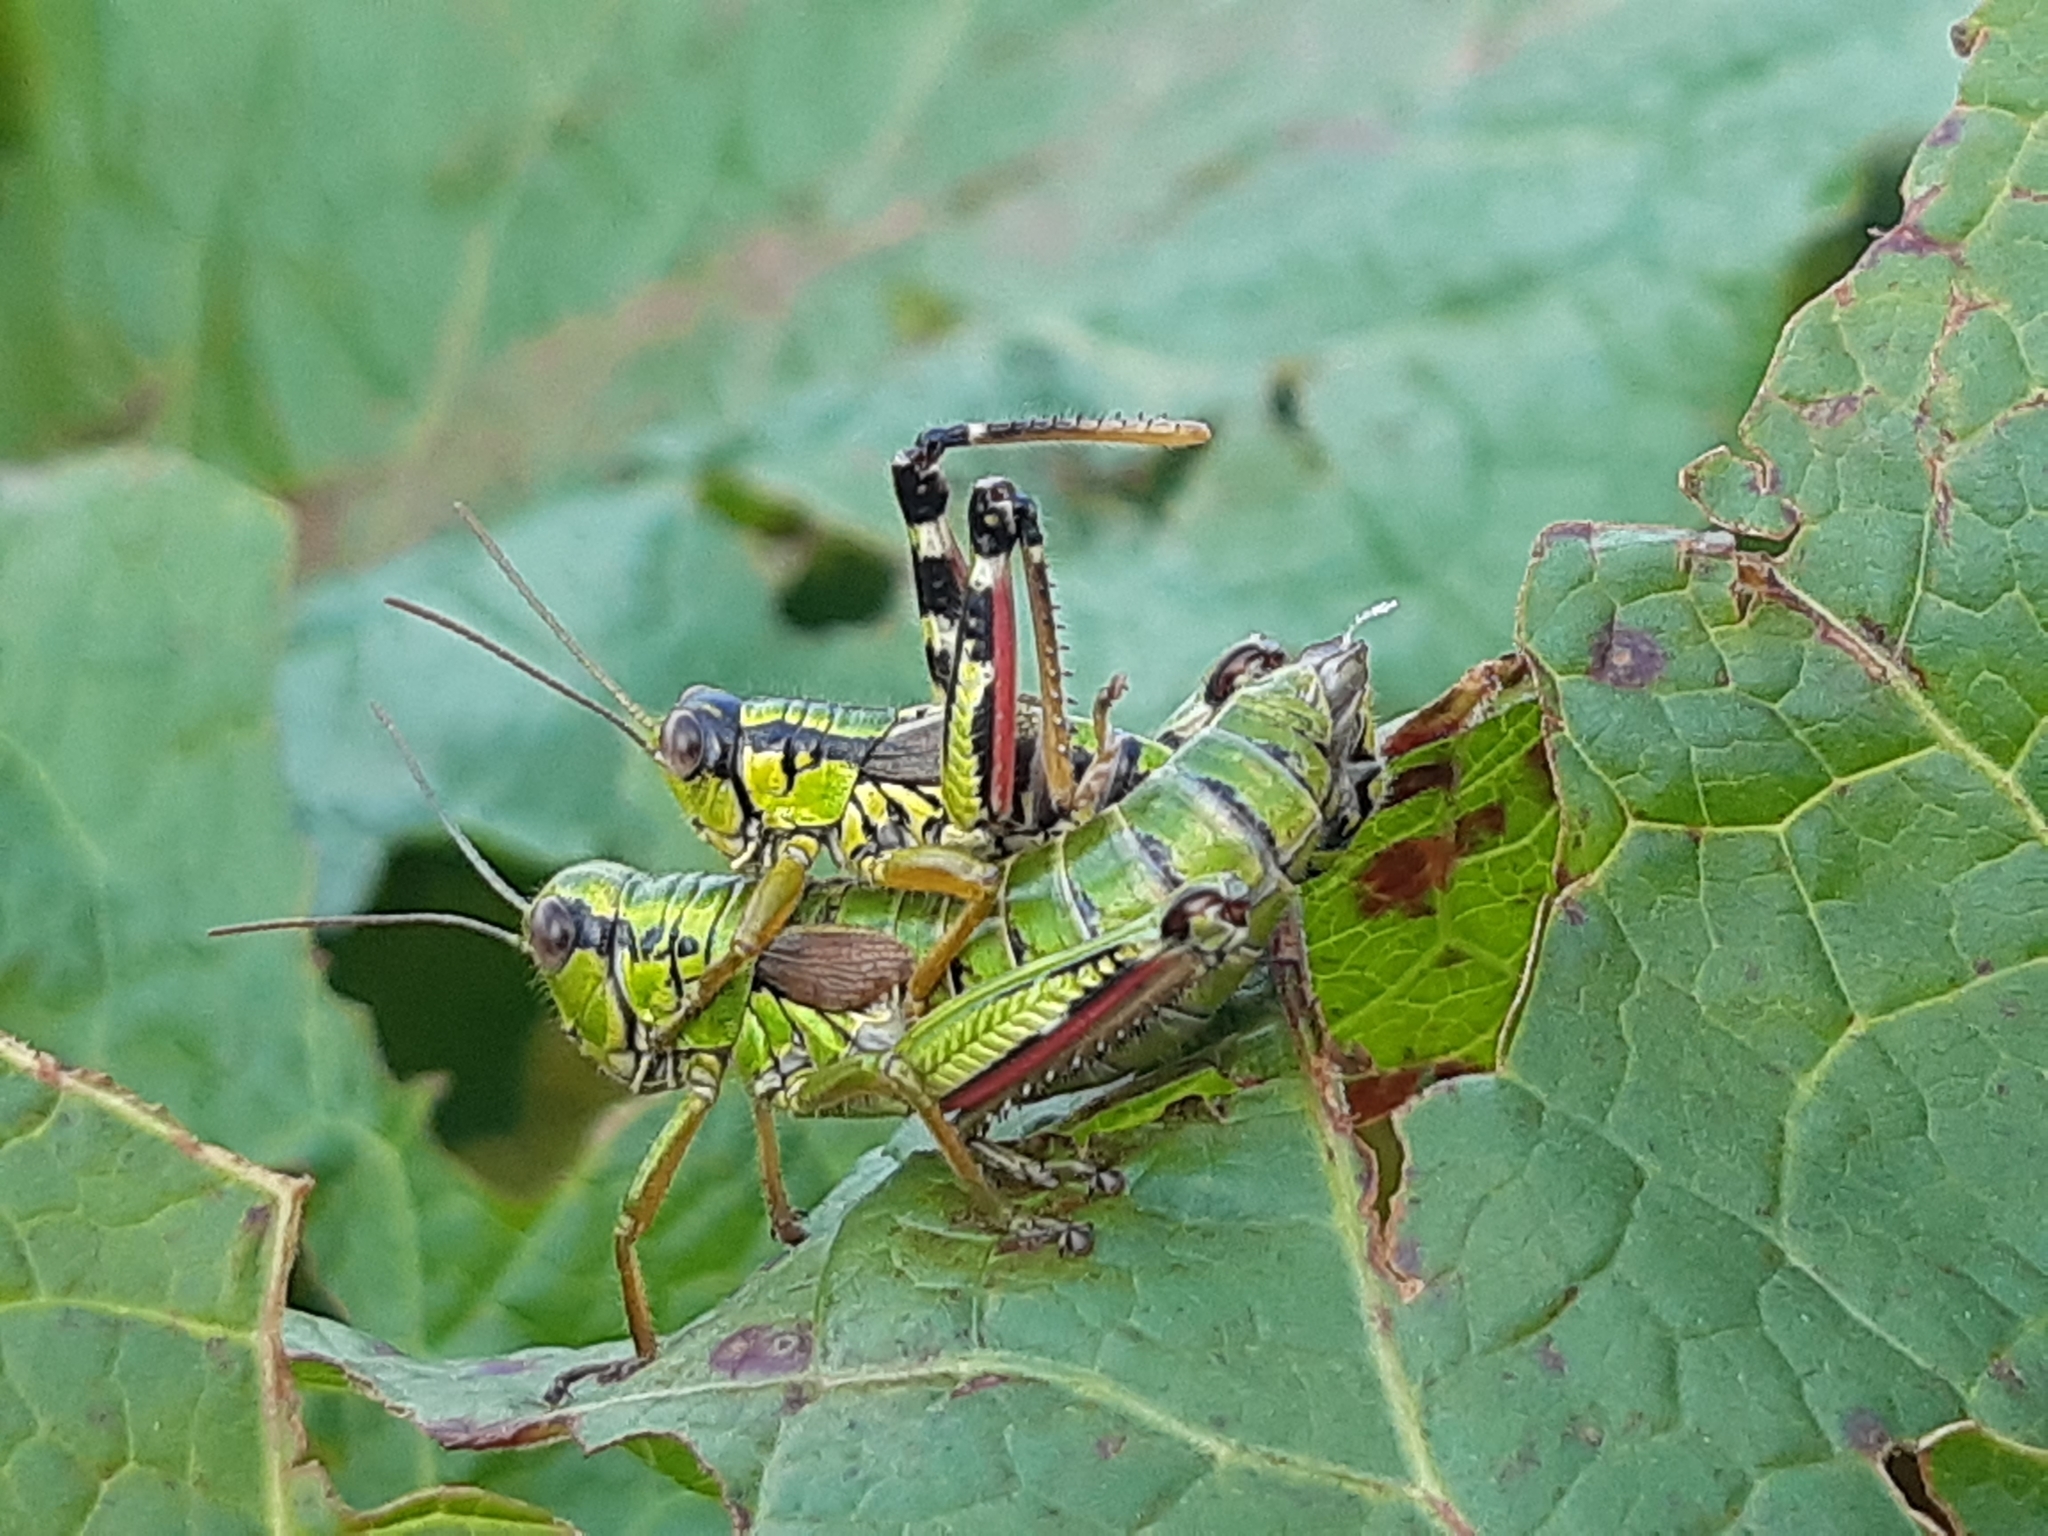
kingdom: Animalia
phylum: Arthropoda
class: Insecta
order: Orthoptera
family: Acrididae
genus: Miramella
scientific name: Miramella alpina
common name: Green mountain grasshopper
